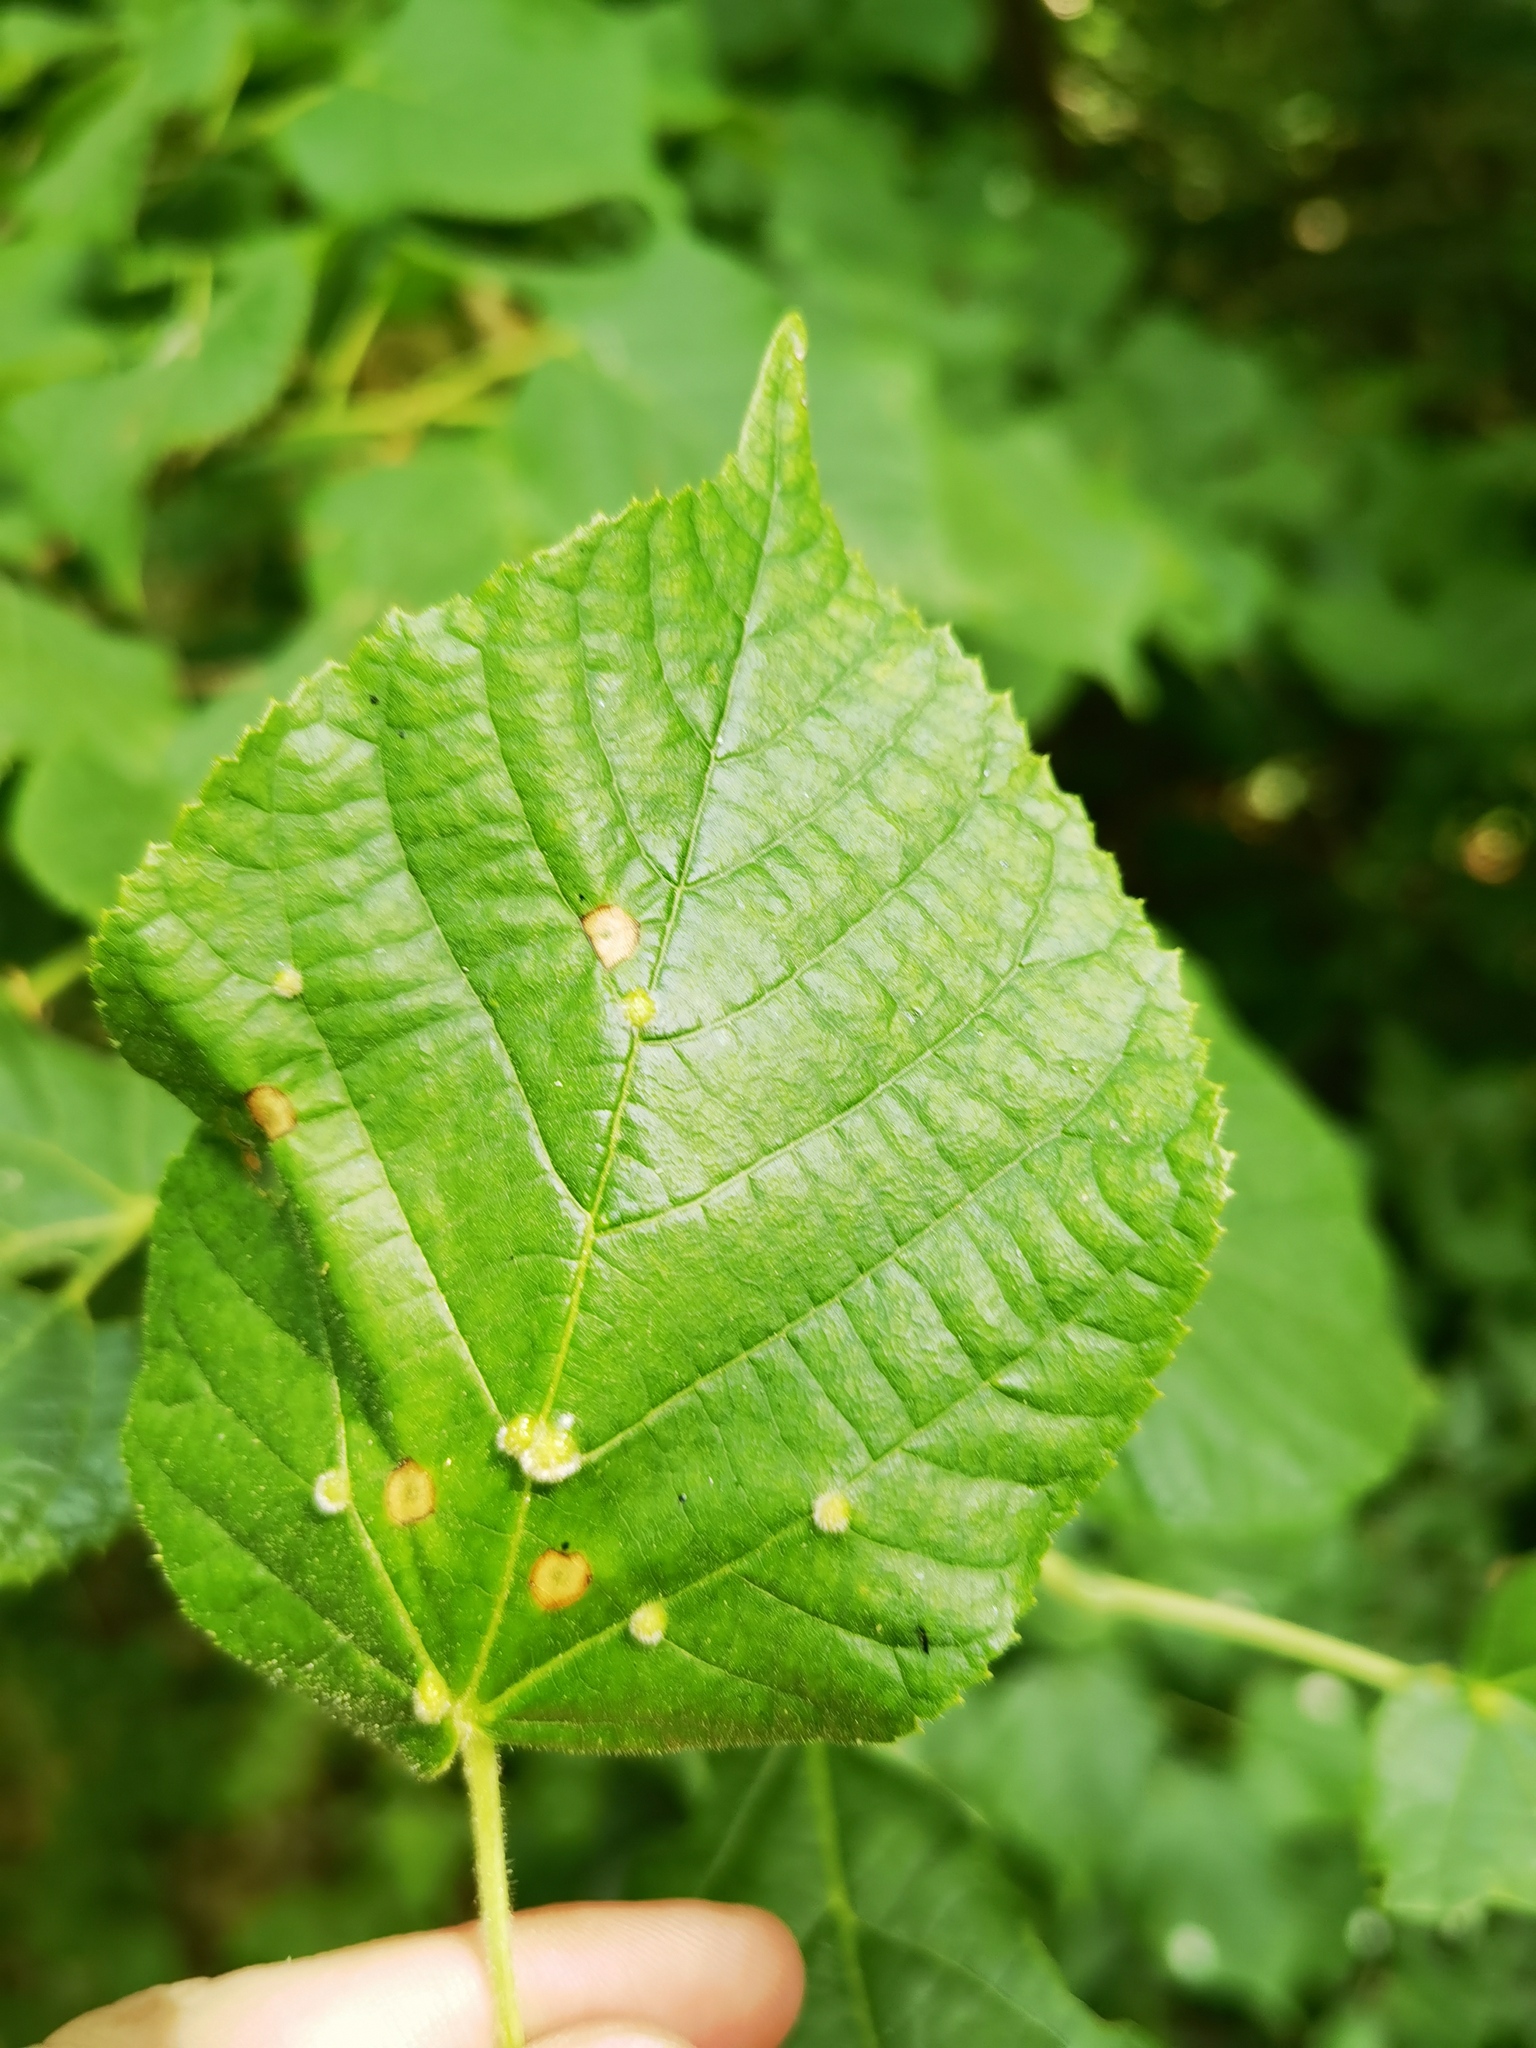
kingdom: Animalia
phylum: Arthropoda
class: Arachnida
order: Trombidiformes
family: Eriophyidae
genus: Eriophyes
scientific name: Eriophyes tiliae
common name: Red nail gall mite
